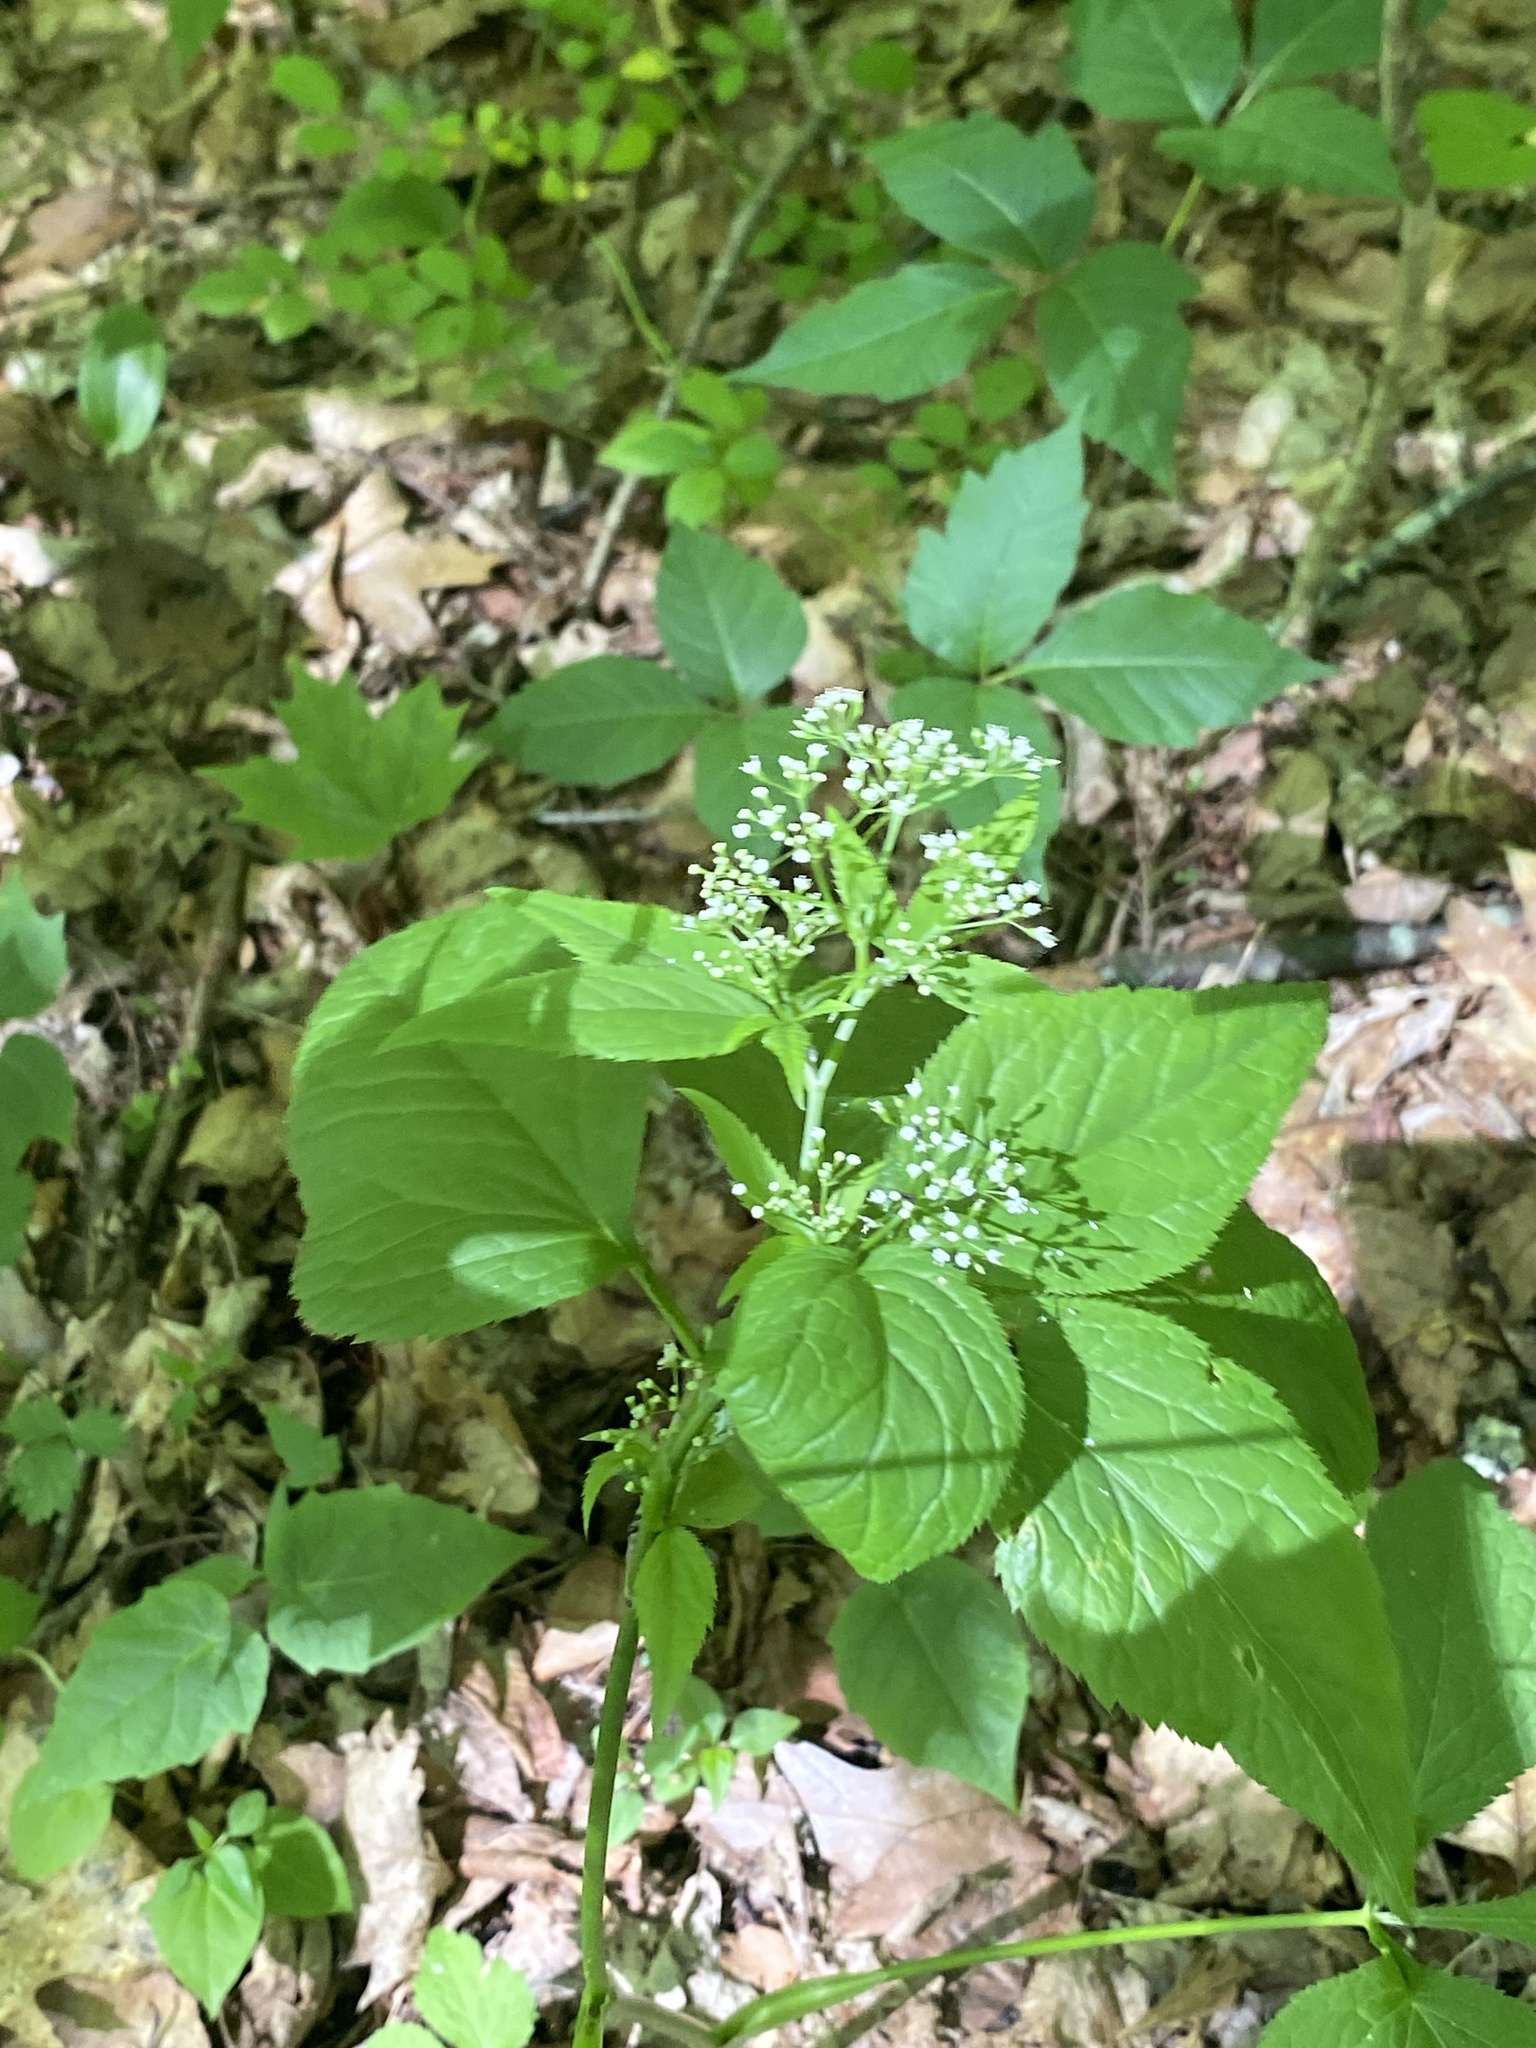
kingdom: Plantae
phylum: Tracheophyta
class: Magnoliopsida
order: Apiales
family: Apiaceae
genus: Cryptotaenia
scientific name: Cryptotaenia canadensis
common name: Honewort
